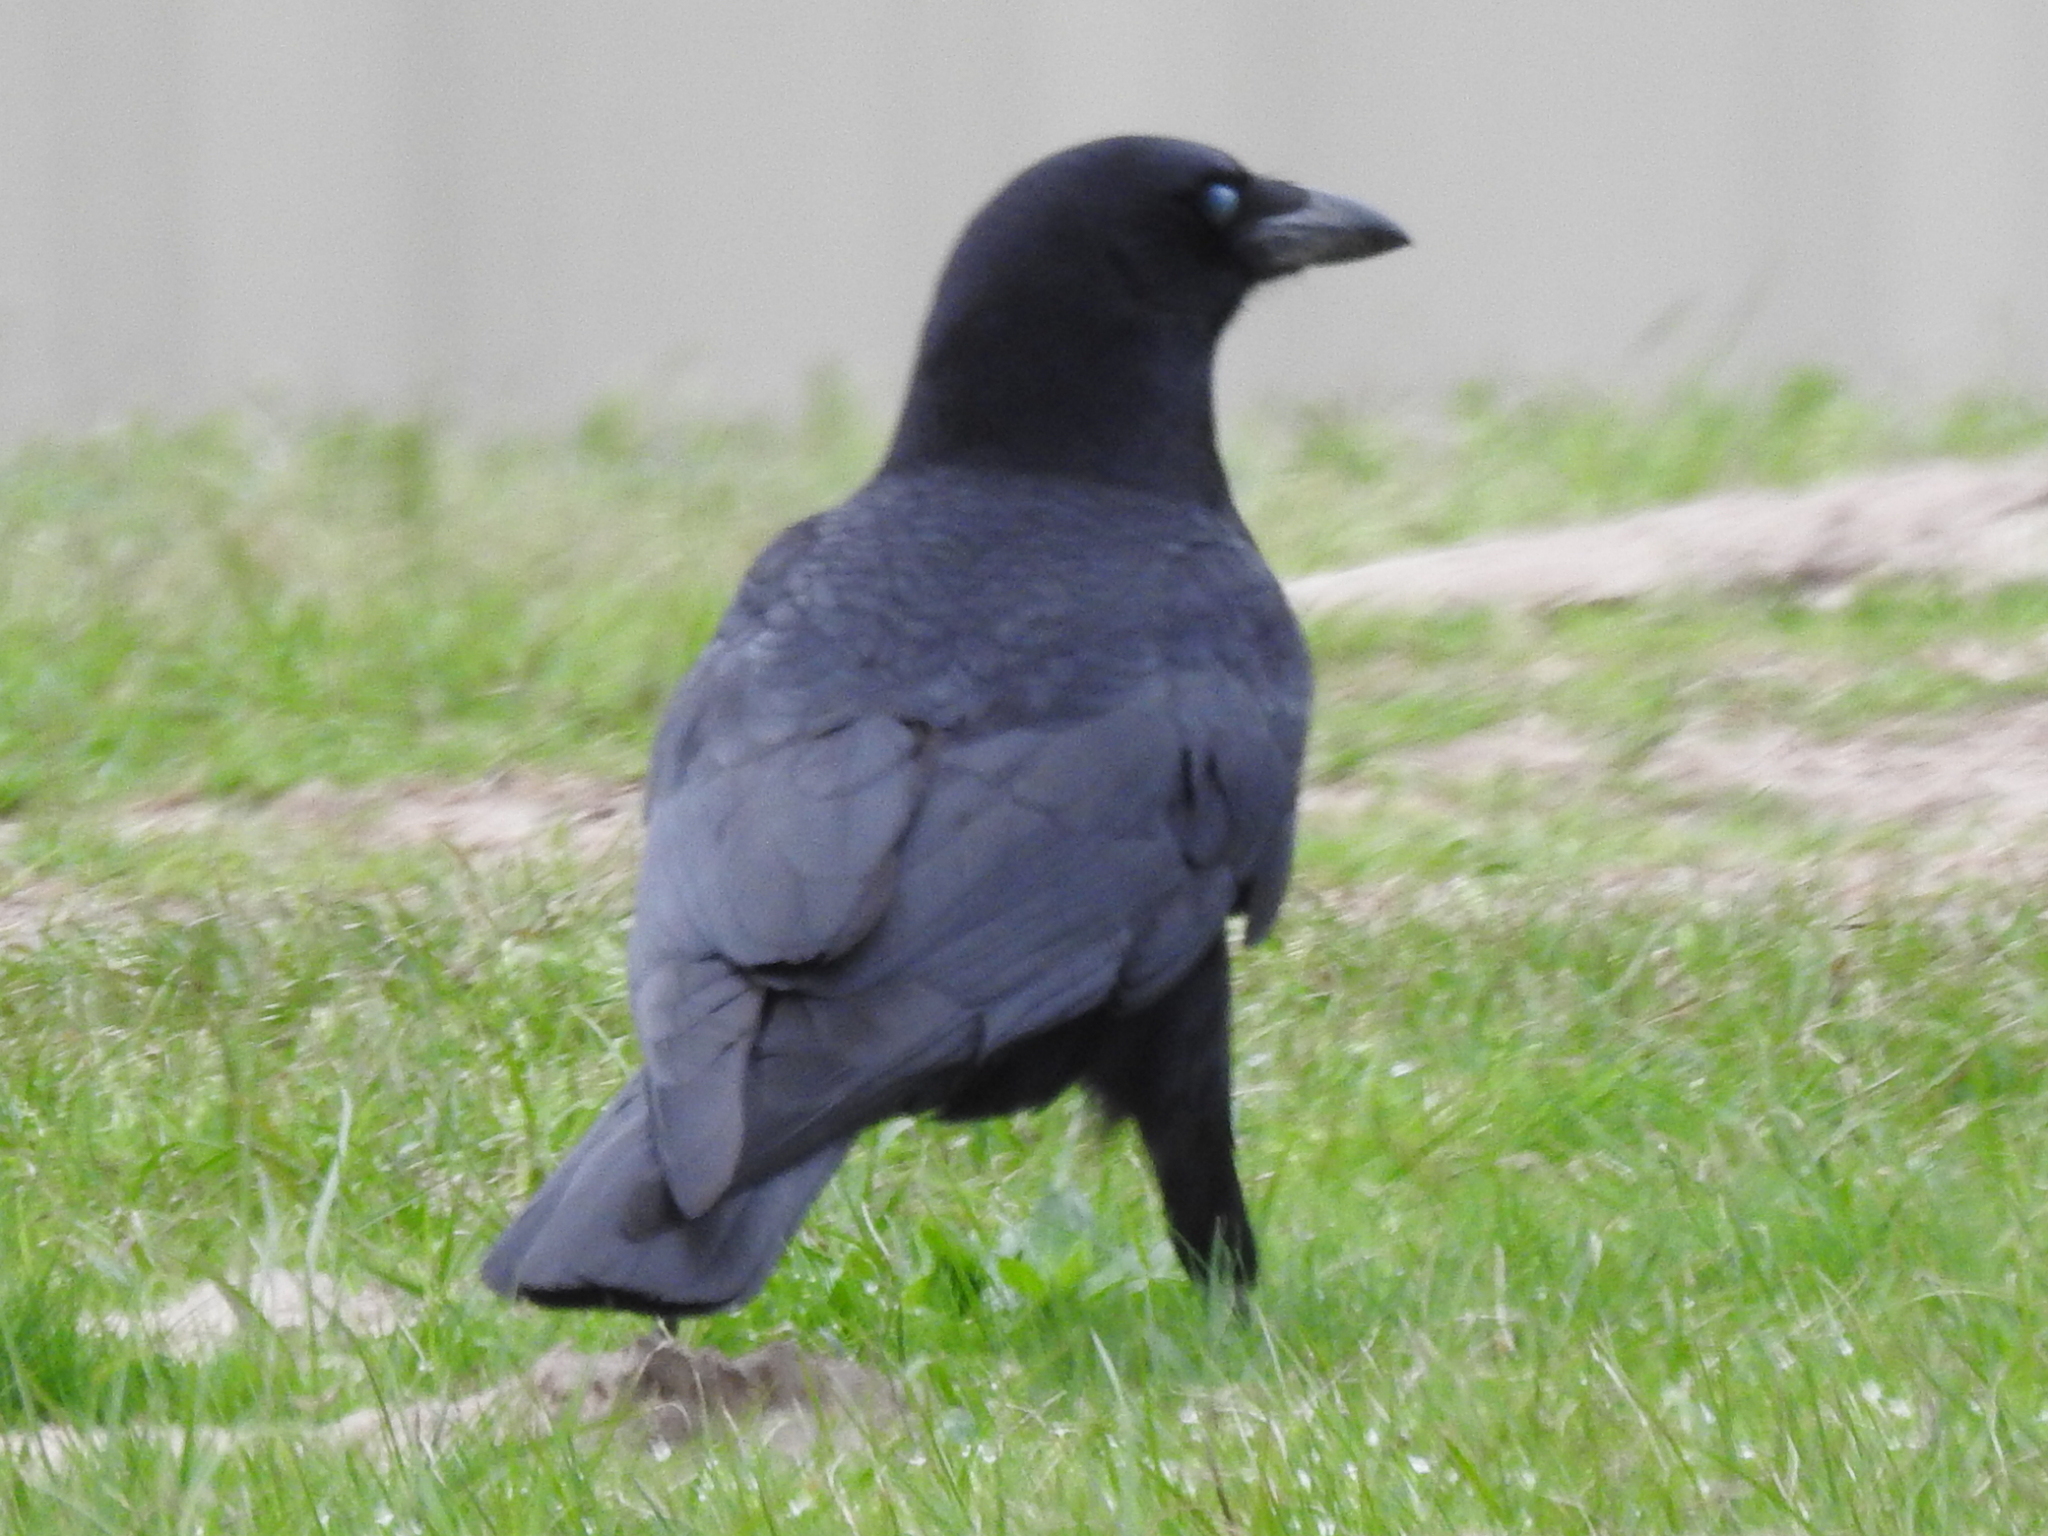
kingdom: Animalia
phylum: Chordata
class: Aves
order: Passeriformes
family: Corvidae
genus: Corvus
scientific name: Corvus brachyrhynchos
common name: American crow
